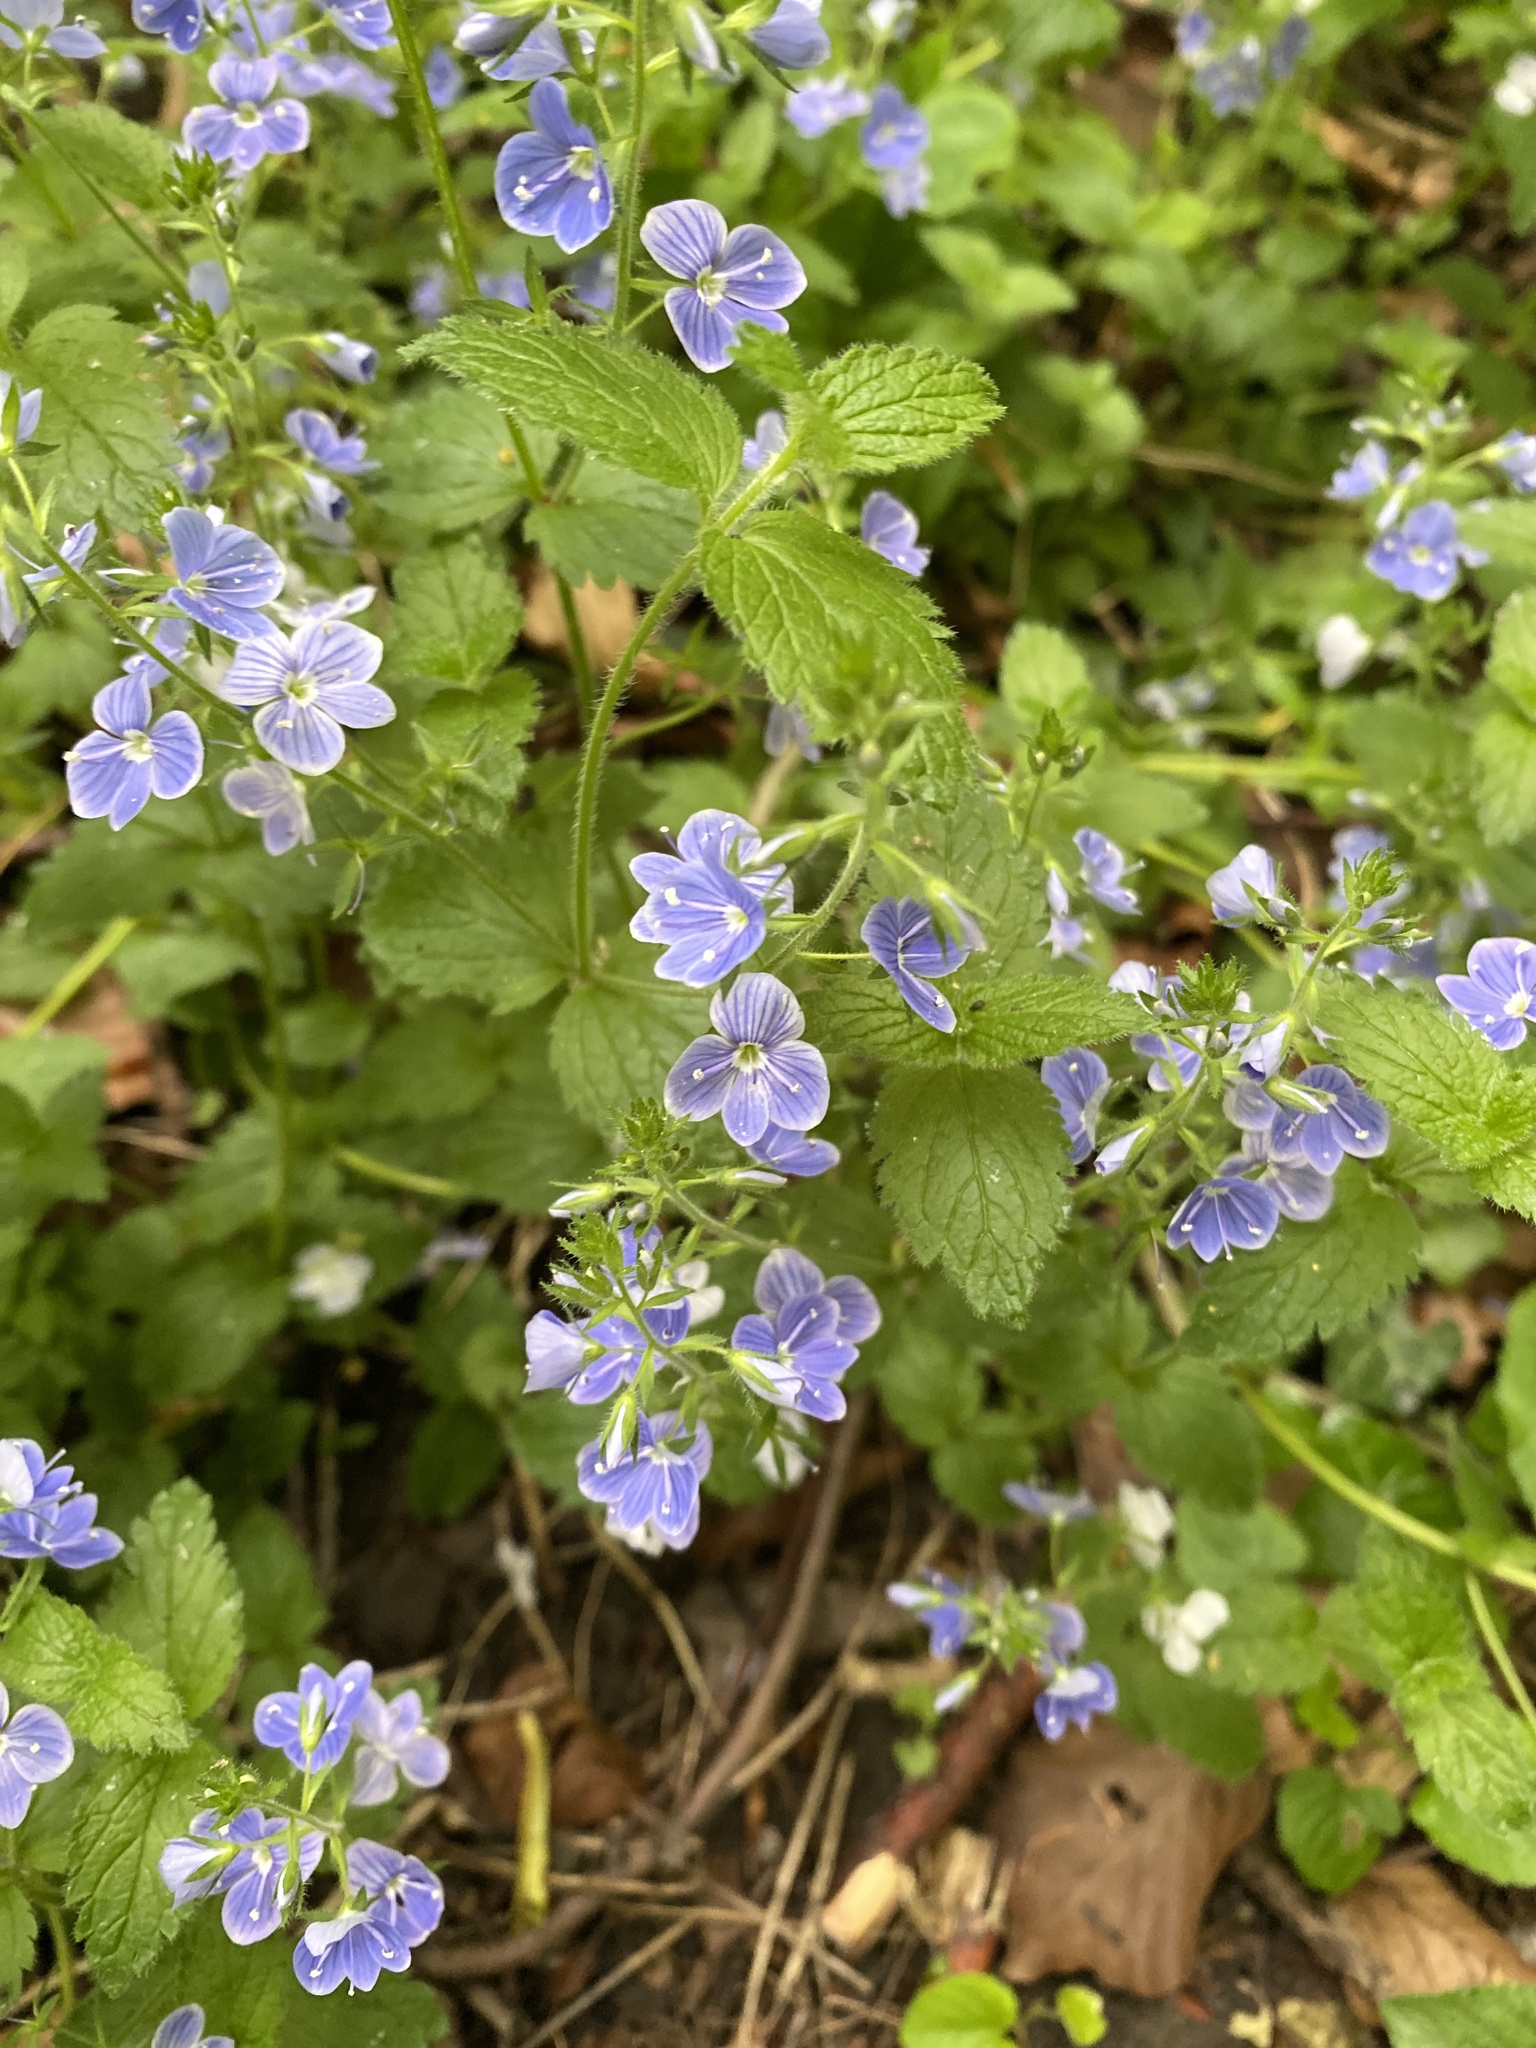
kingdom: Plantae
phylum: Tracheophyta
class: Magnoliopsida
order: Lamiales
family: Plantaginaceae
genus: Veronica
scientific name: Veronica chamaedrys
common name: Germander speedwell
